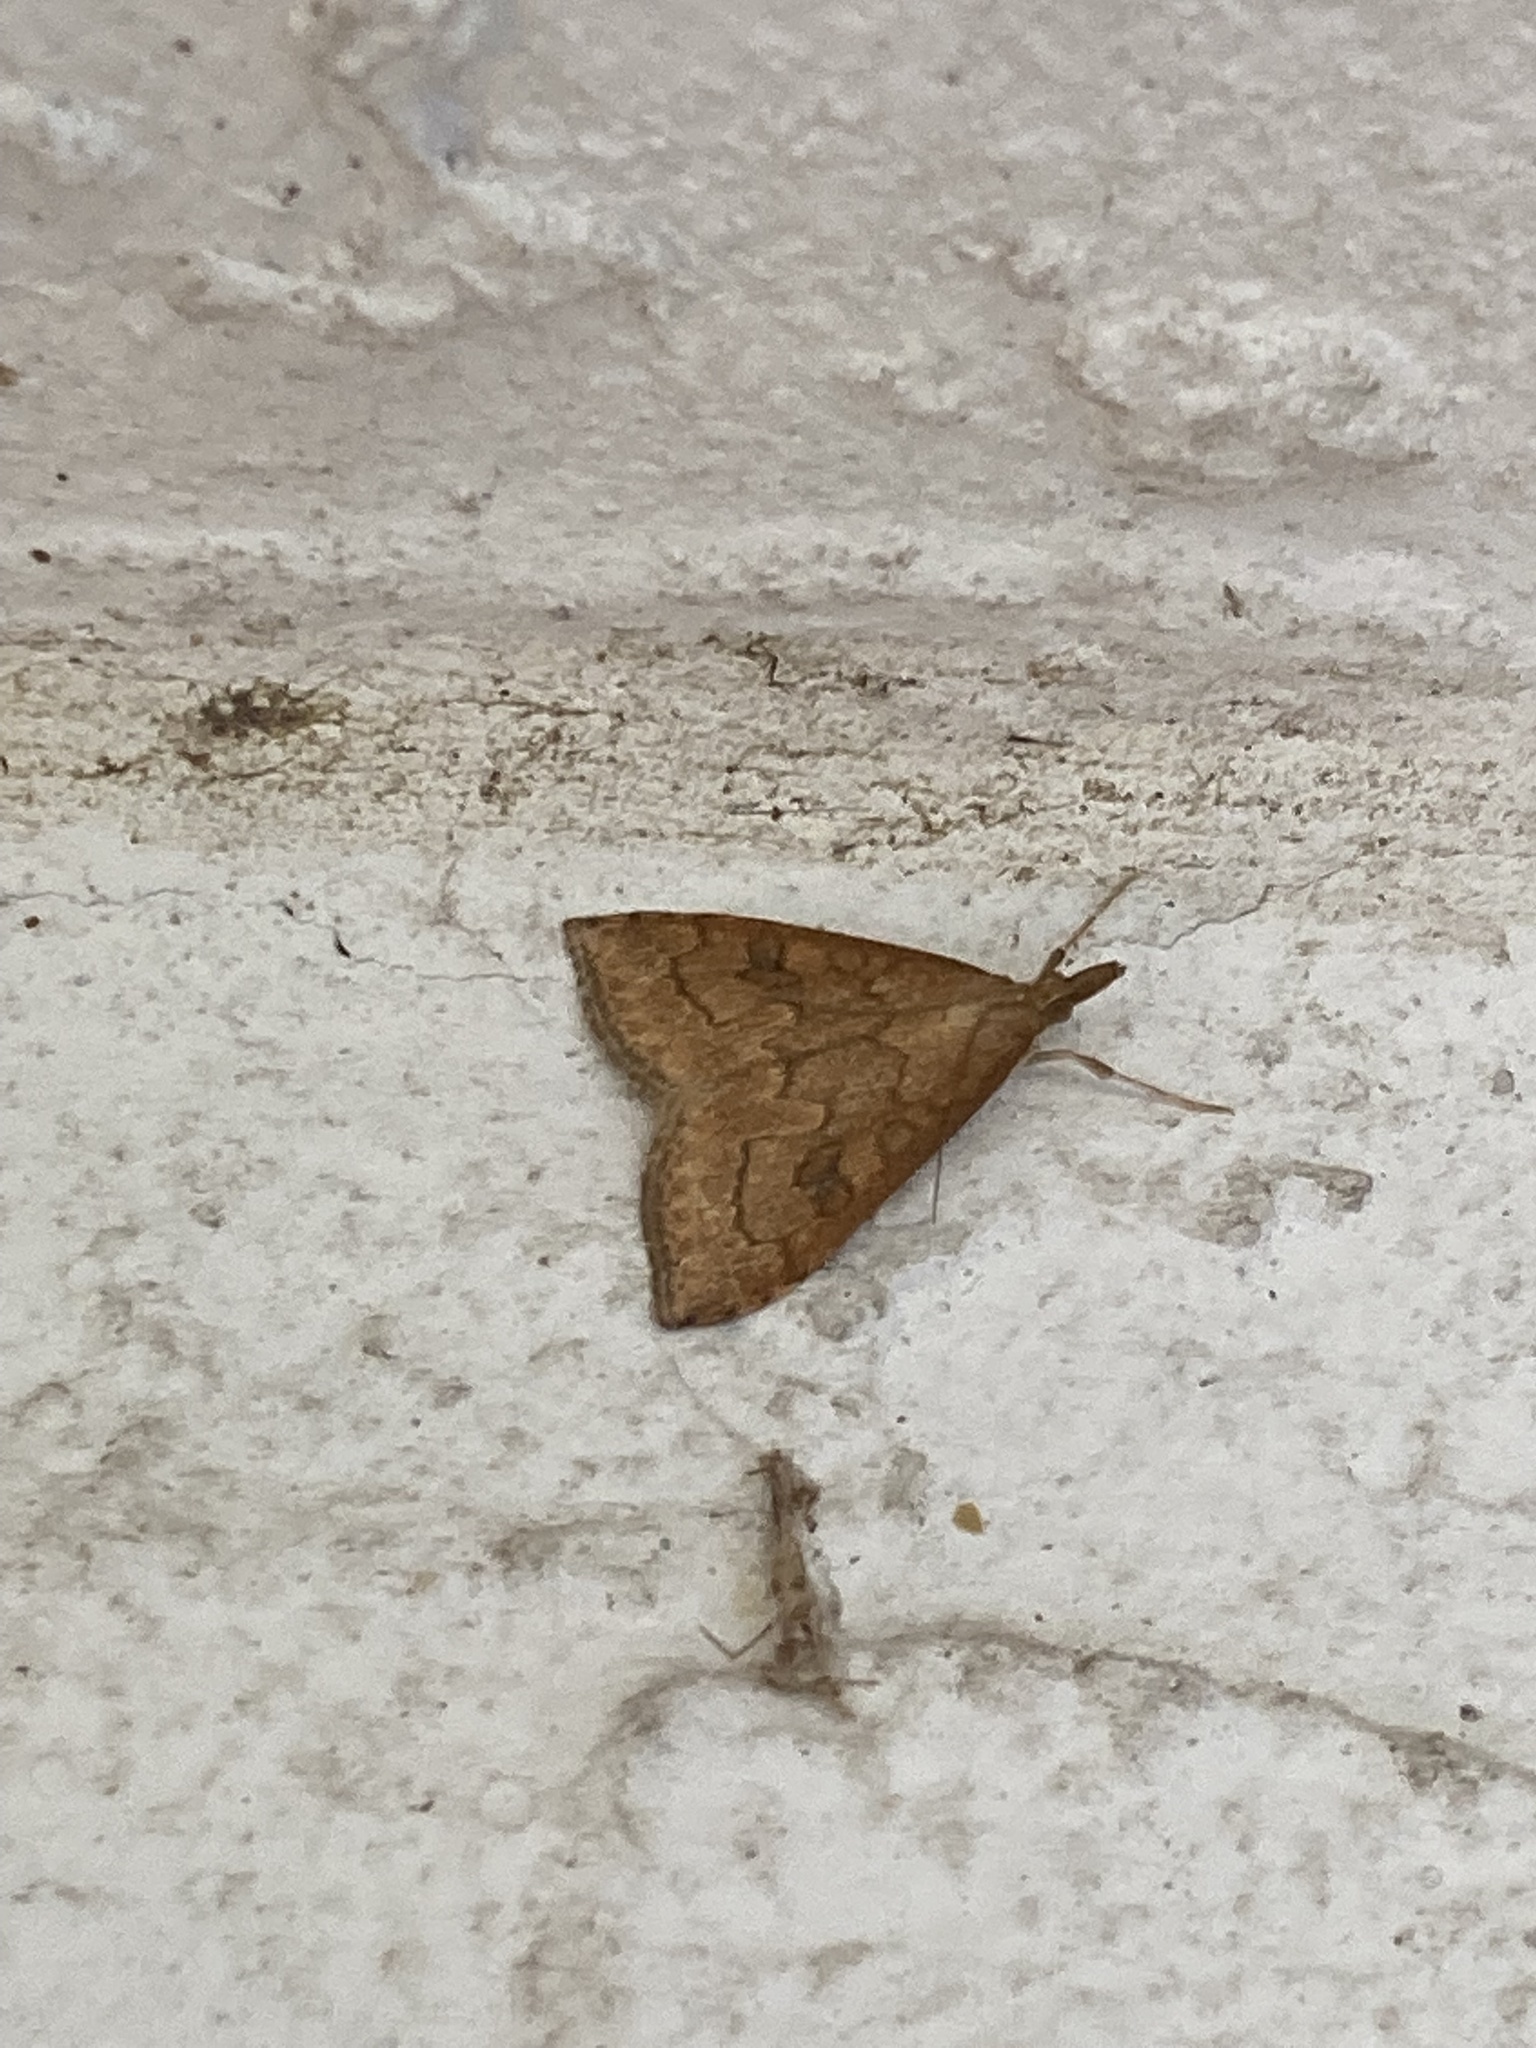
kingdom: Animalia
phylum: Arthropoda
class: Insecta
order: Lepidoptera
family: Crambidae
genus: Udea
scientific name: Udea rubigalis
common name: Celery leaftier moth
